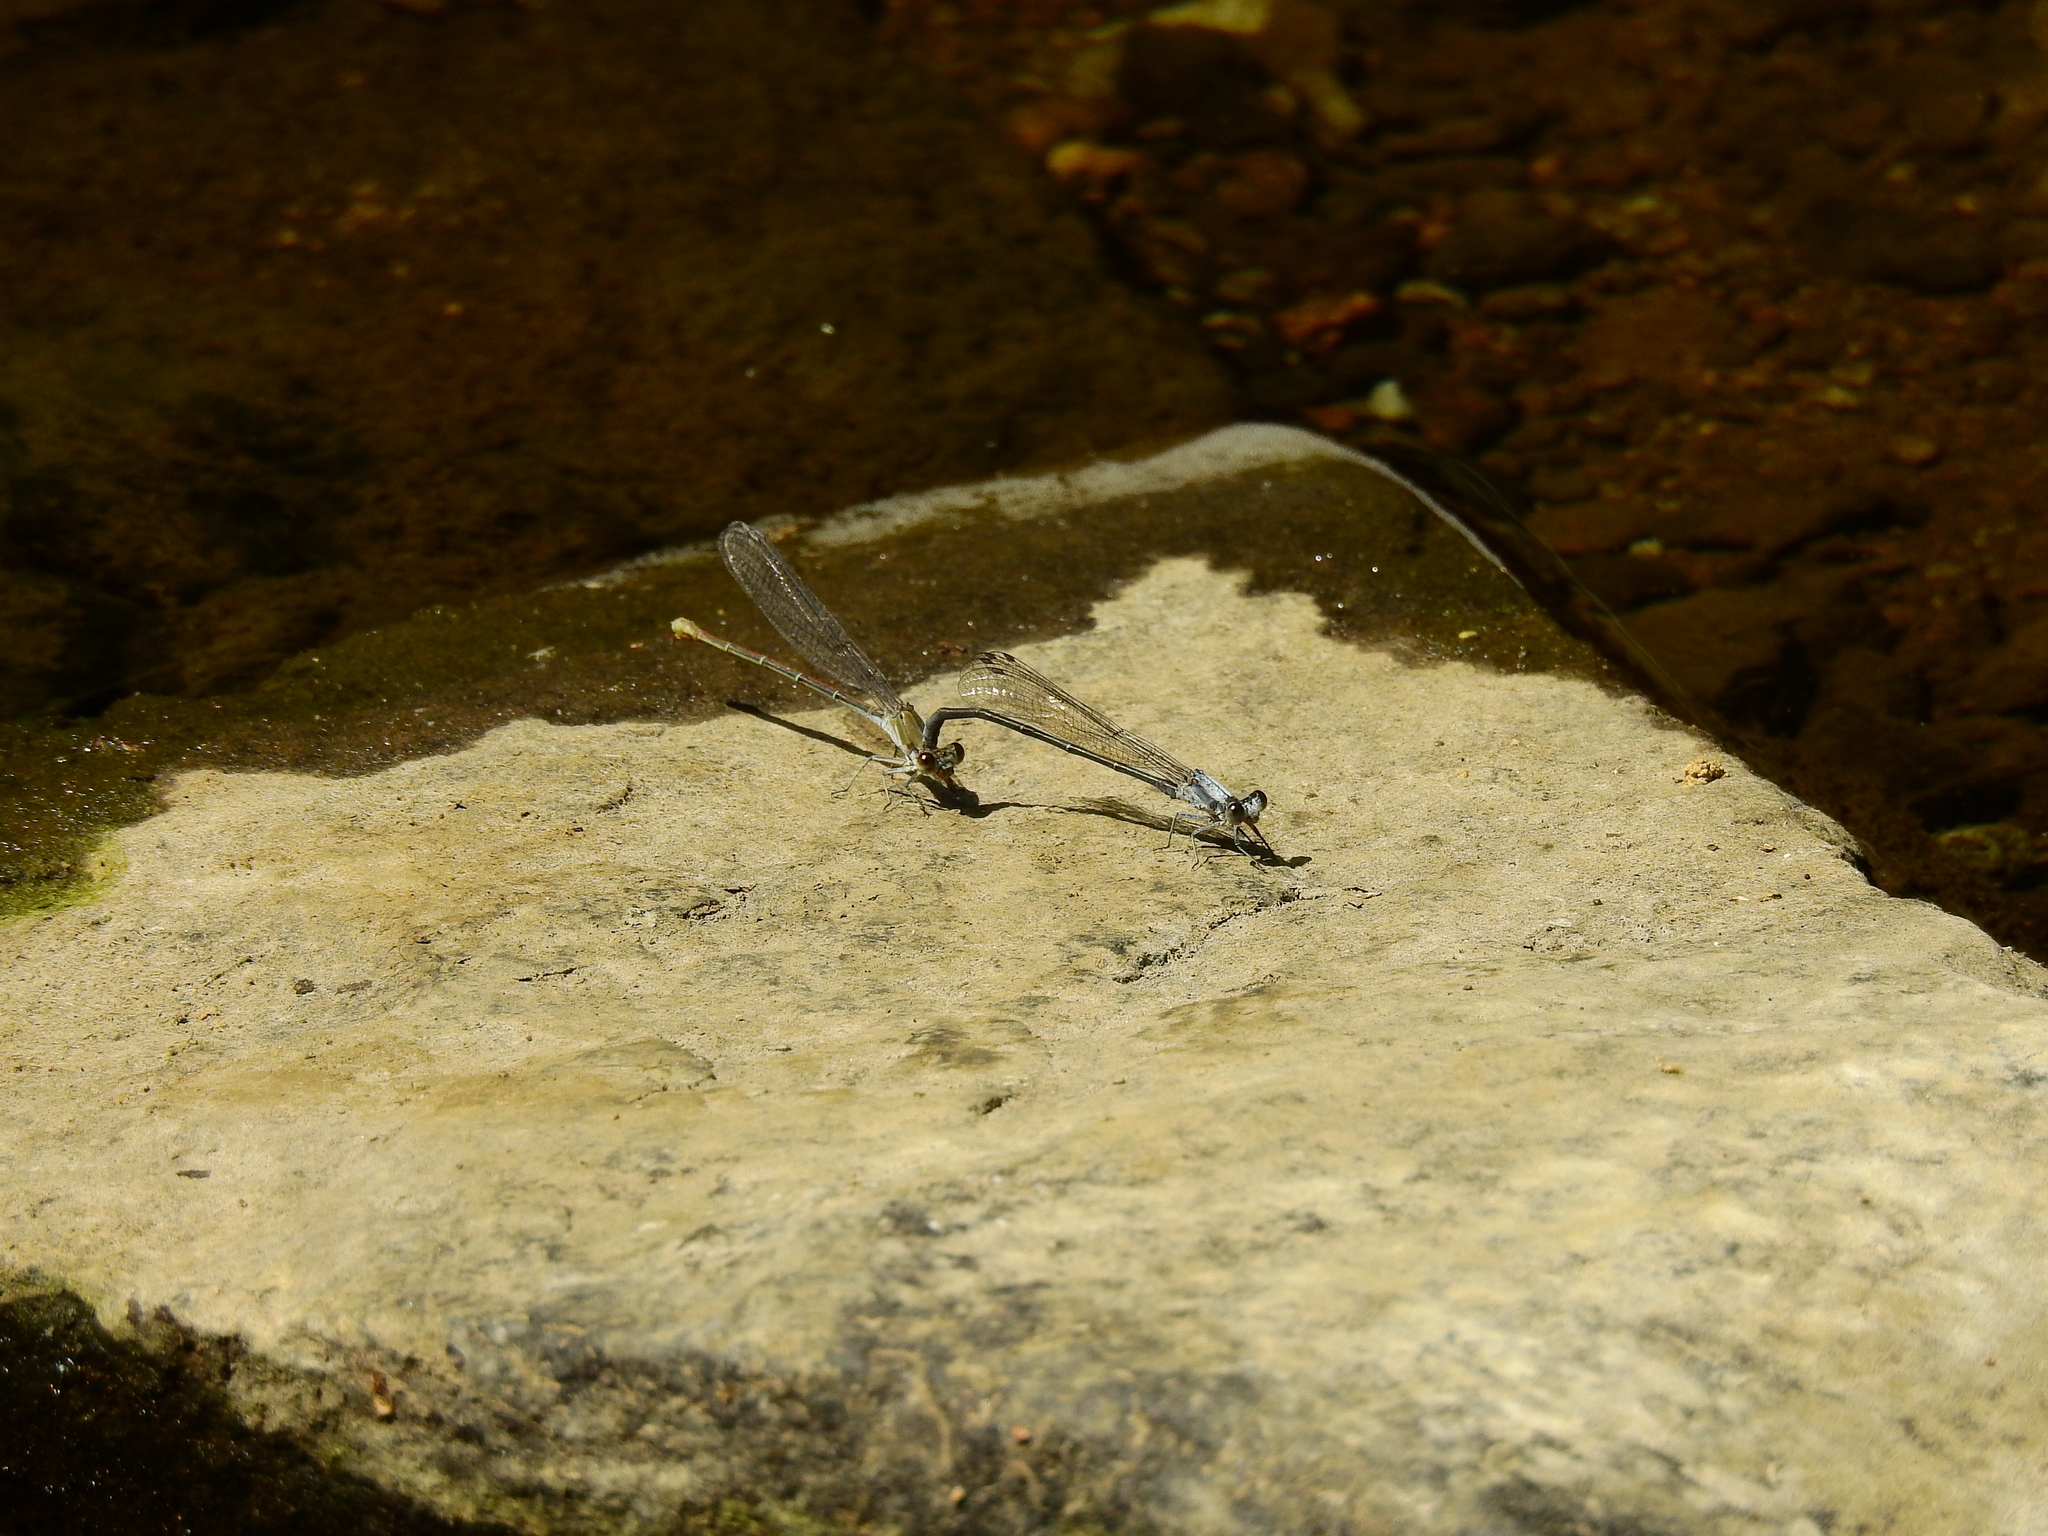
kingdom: Animalia
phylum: Arthropoda
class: Insecta
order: Odonata
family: Coenagrionidae
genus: Argia
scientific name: Argia moesta
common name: Powdered dancer
